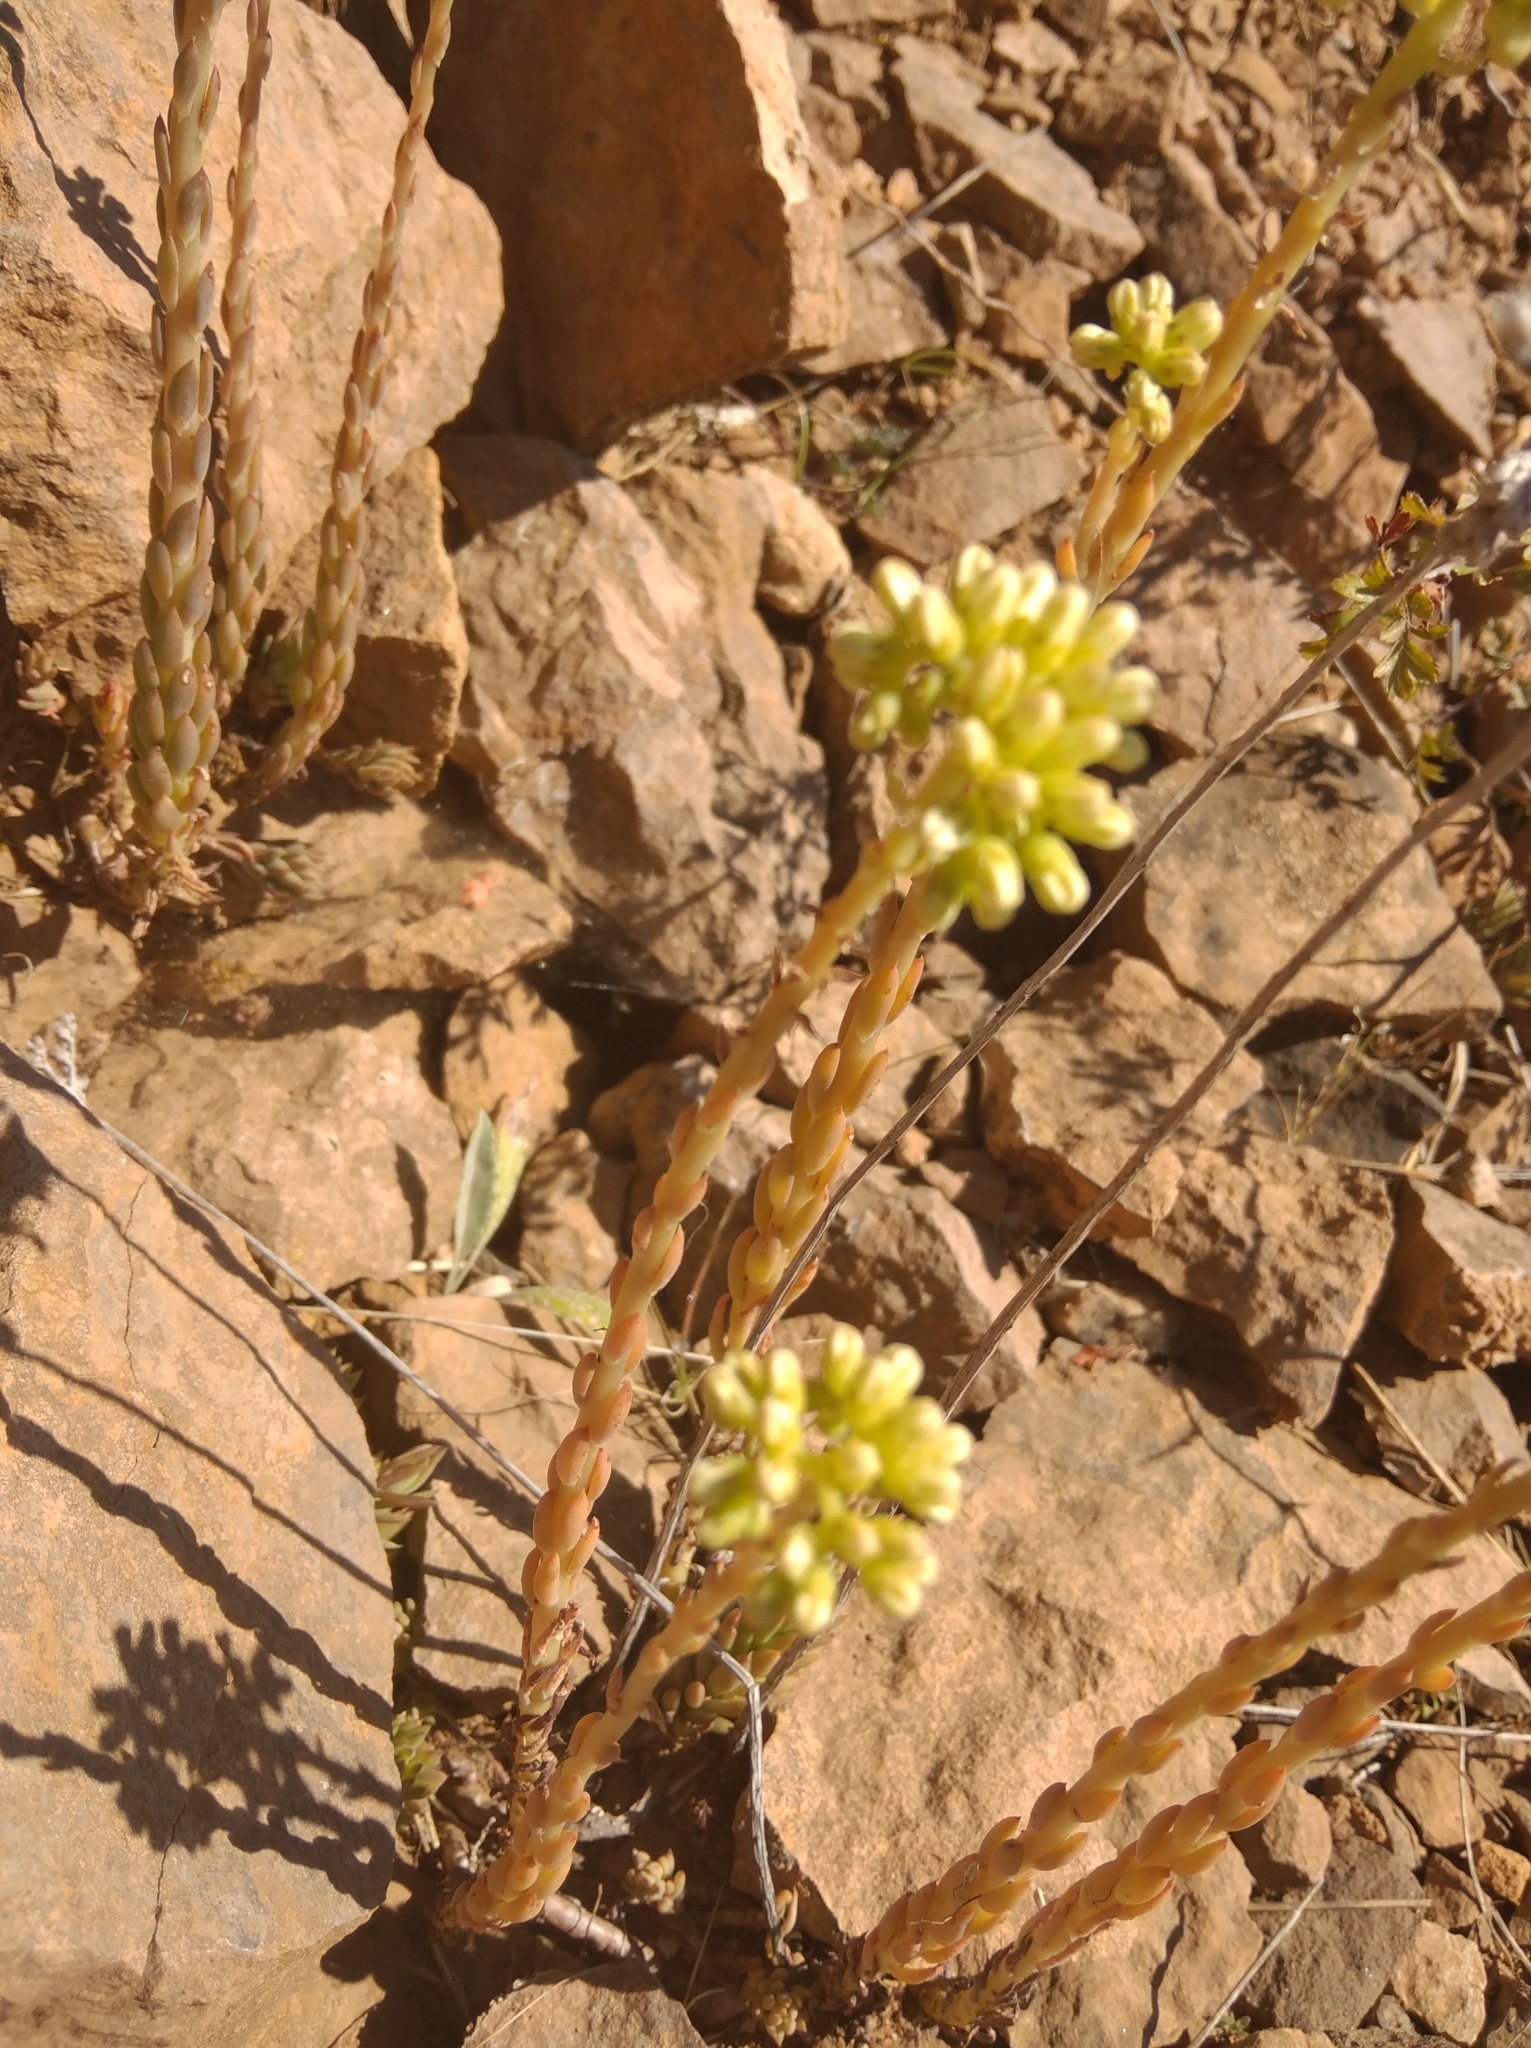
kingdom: Plantae
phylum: Tracheophyta
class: Magnoliopsida
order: Saxifragales
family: Crassulaceae
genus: Petrosedum
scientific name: Petrosedum sediforme
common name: Pale stonecrop
